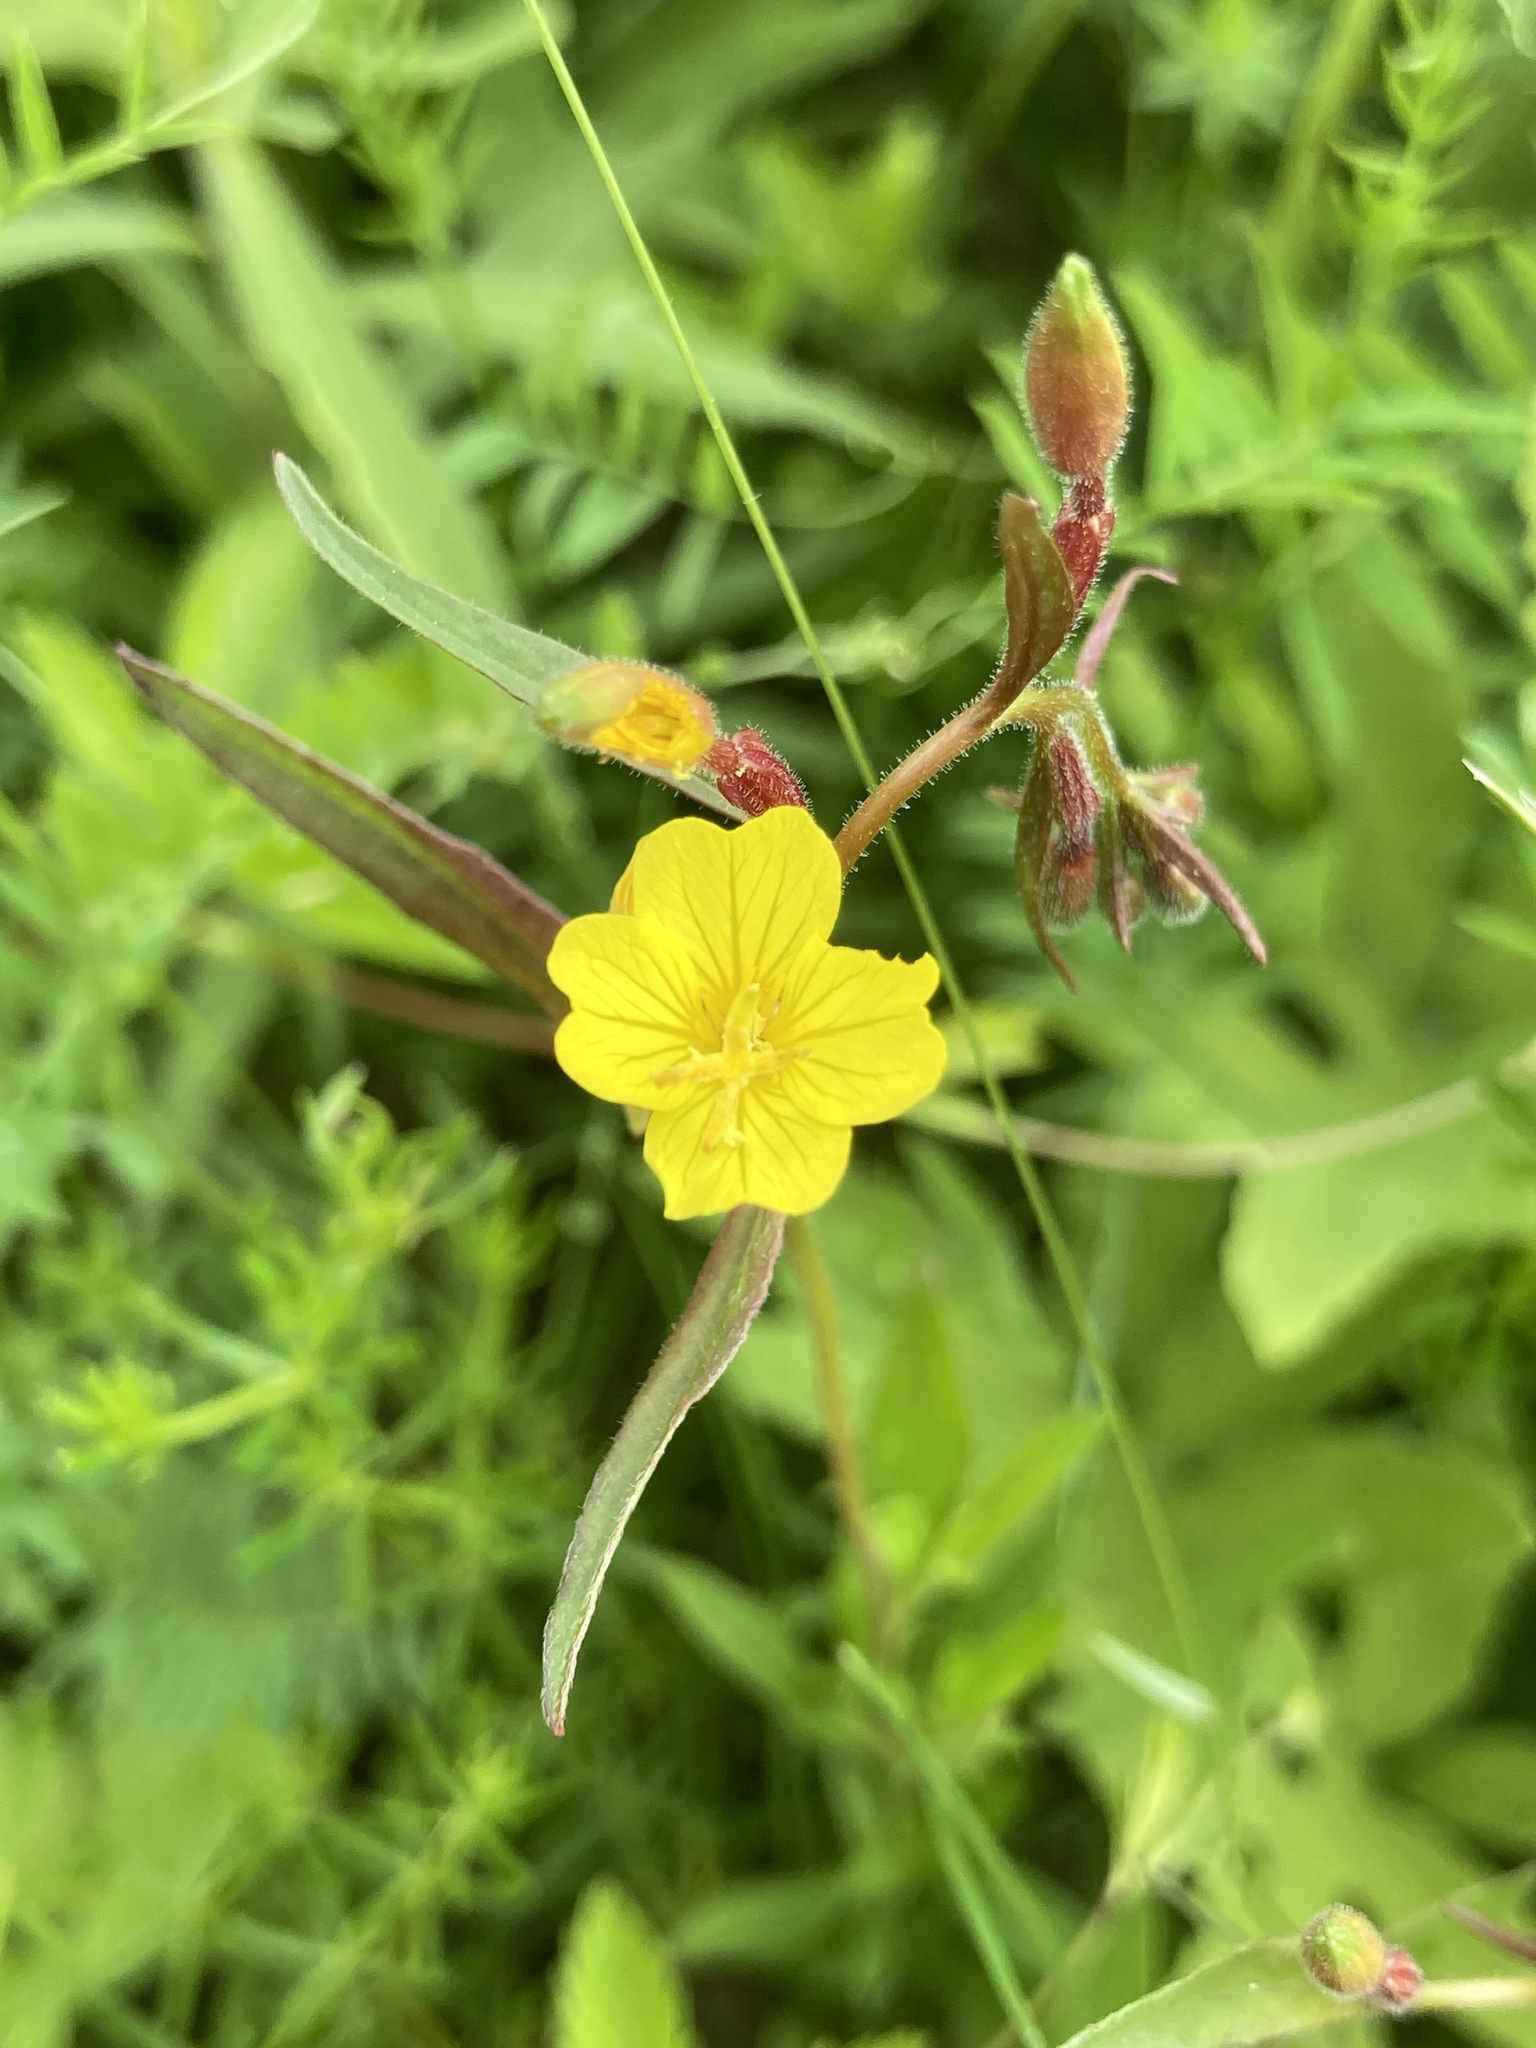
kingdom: Plantae
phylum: Tracheophyta
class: Magnoliopsida
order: Myrtales
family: Onagraceae
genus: Oenothera
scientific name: Oenothera perennis
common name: Small sundrops
